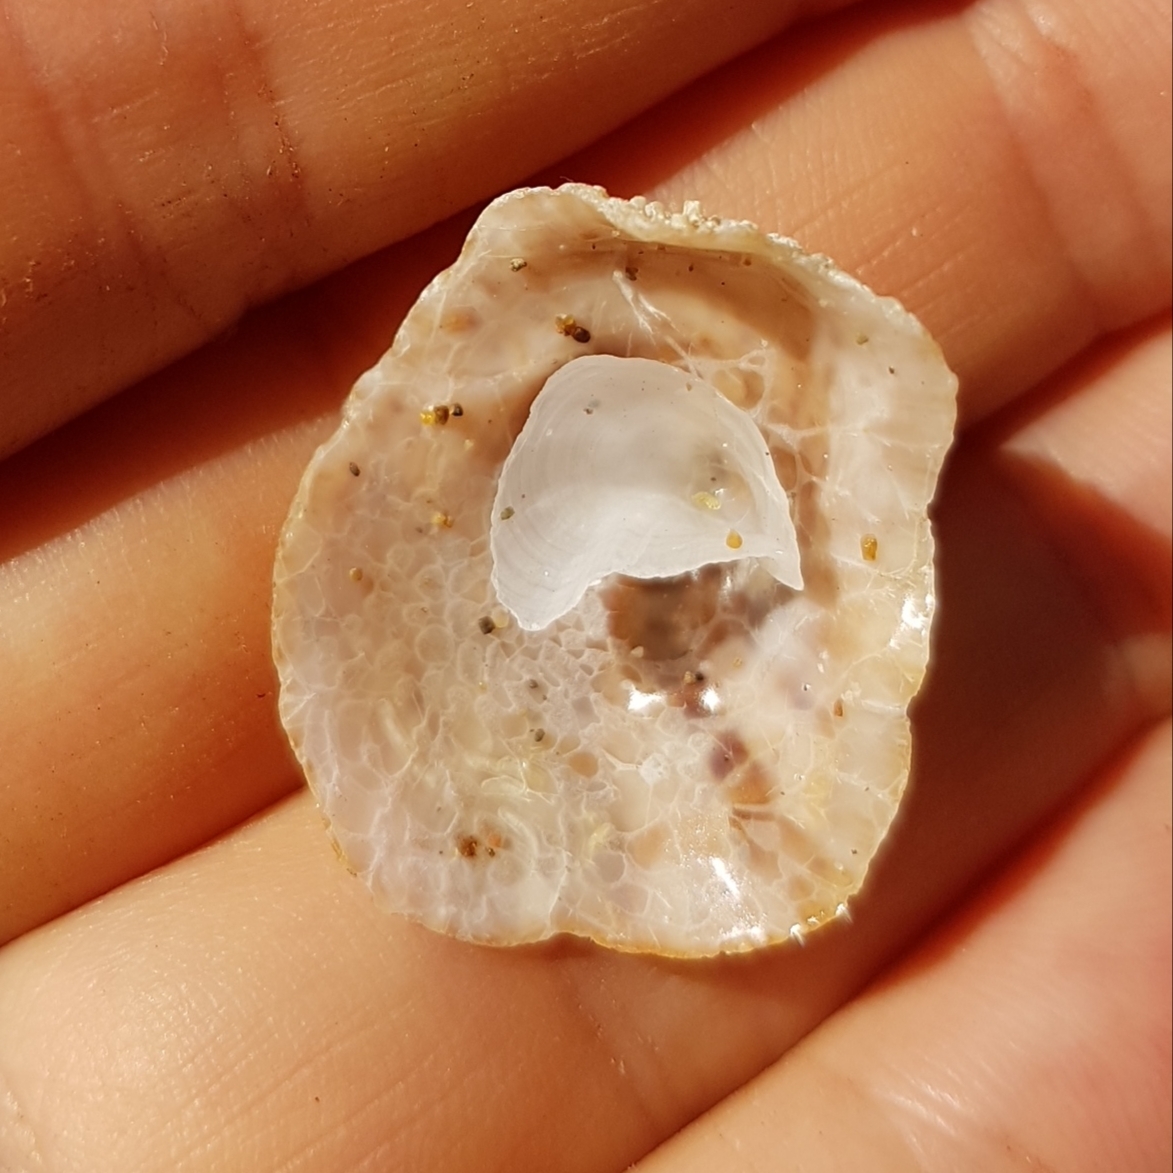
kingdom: Animalia
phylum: Mollusca
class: Gastropoda
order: Littorinimorpha
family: Calyptraeidae
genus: Crucibulum
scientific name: Crucibulum spinosum
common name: Spiny cup-and-saucer
